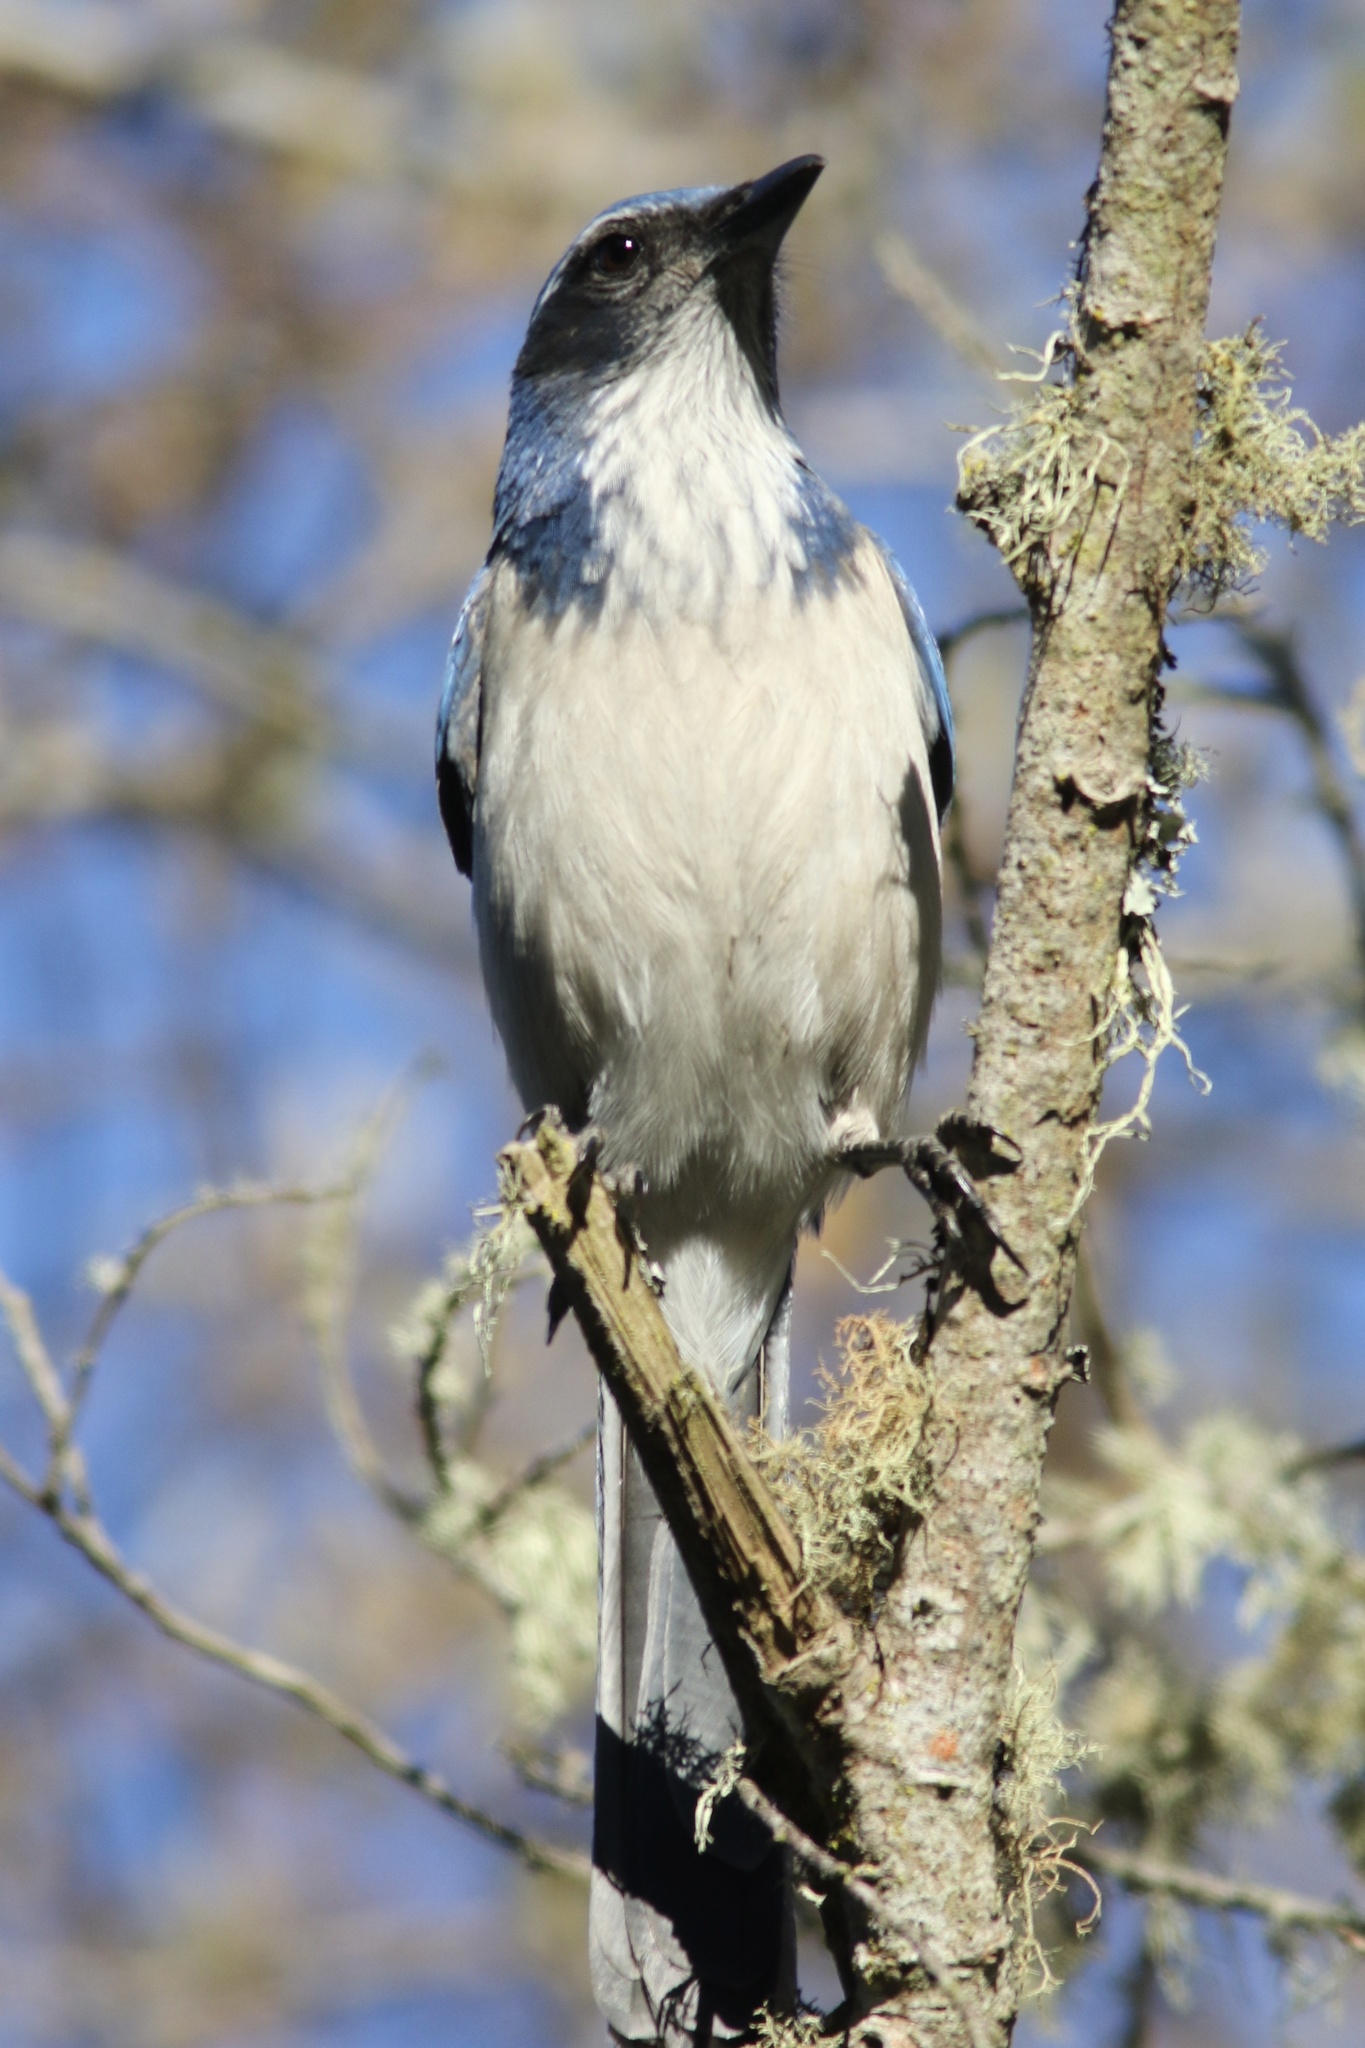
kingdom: Animalia
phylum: Chordata
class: Aves
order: Passeriformes
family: Corvidae
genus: Aphelocoma
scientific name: Aphelocoma californica
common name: California scrub-jay
